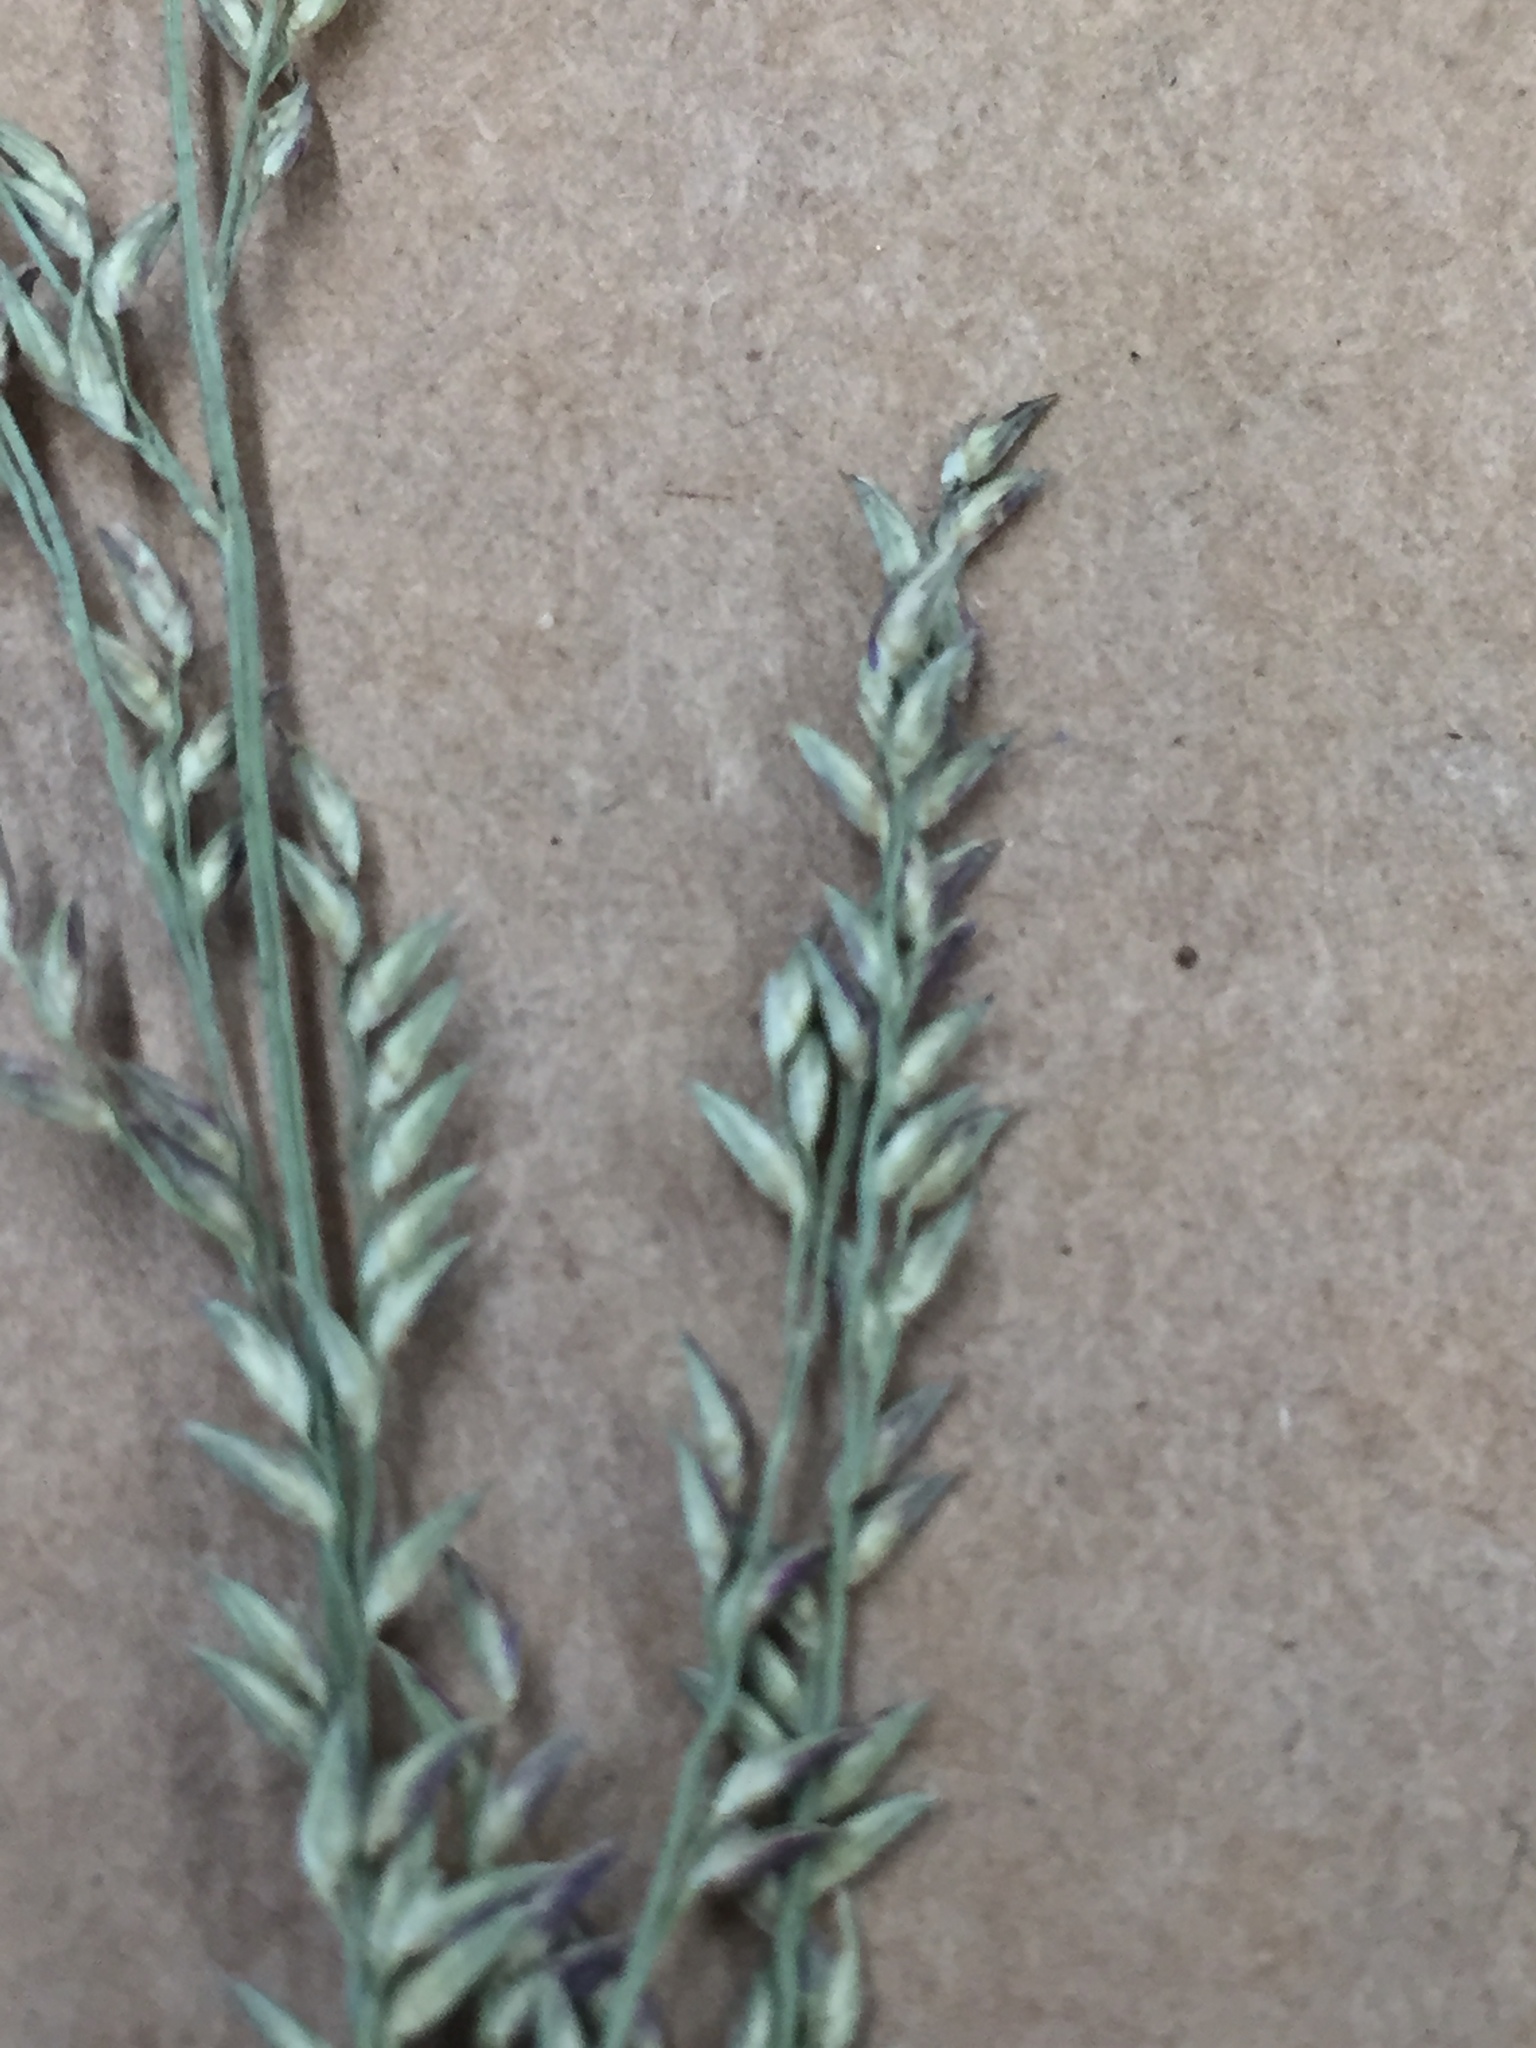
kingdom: Plantae
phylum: Tracheophyta
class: Liliopsida
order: Poales
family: Poaceae
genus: Coleataenia
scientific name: Coleataenia anceps
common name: Beaked panic grass
